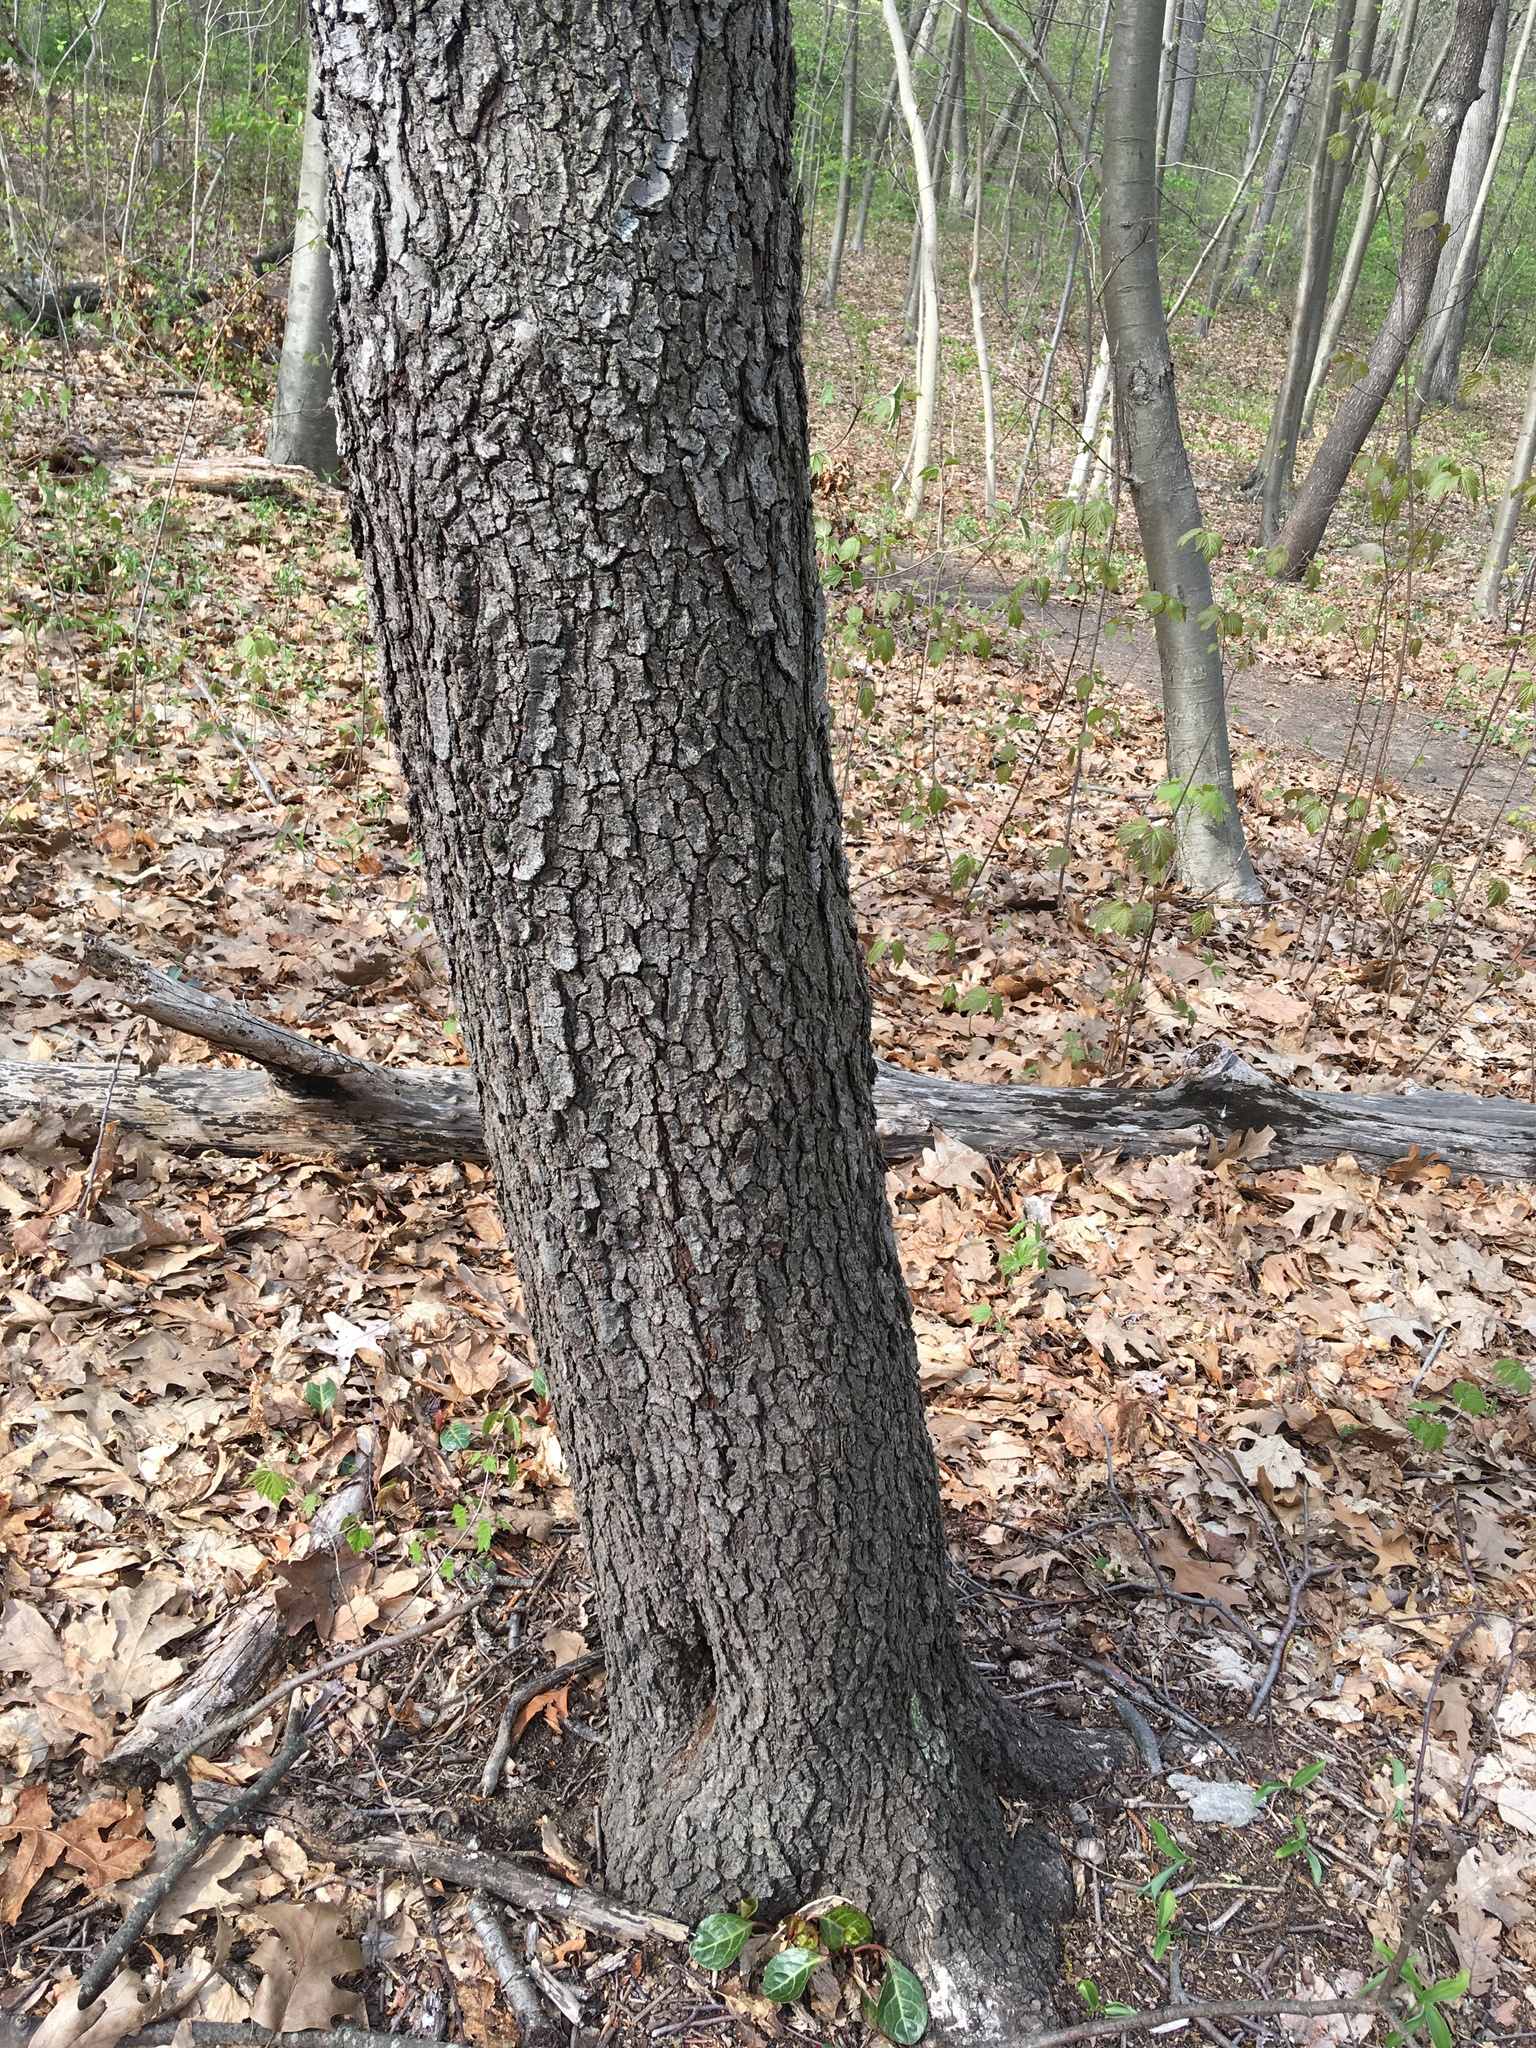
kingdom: Plantae
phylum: Tracheophyta
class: Magnoliopsida
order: Rosales
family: Rosaceae
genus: Prunus
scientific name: Prunus serotina
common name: Black cherry
